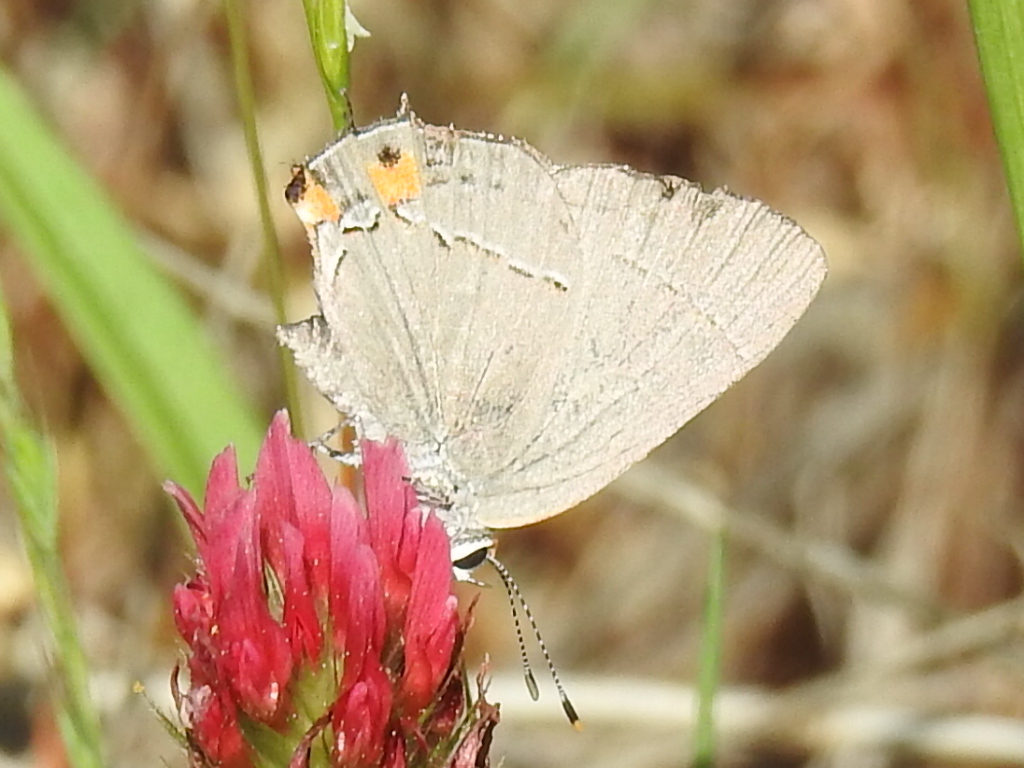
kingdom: Animalia
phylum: Arthropoda
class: Insecta
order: Lepidoptera
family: Lycaenidae
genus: Strymon
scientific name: Strymon melinus
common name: Gray hairstreak
